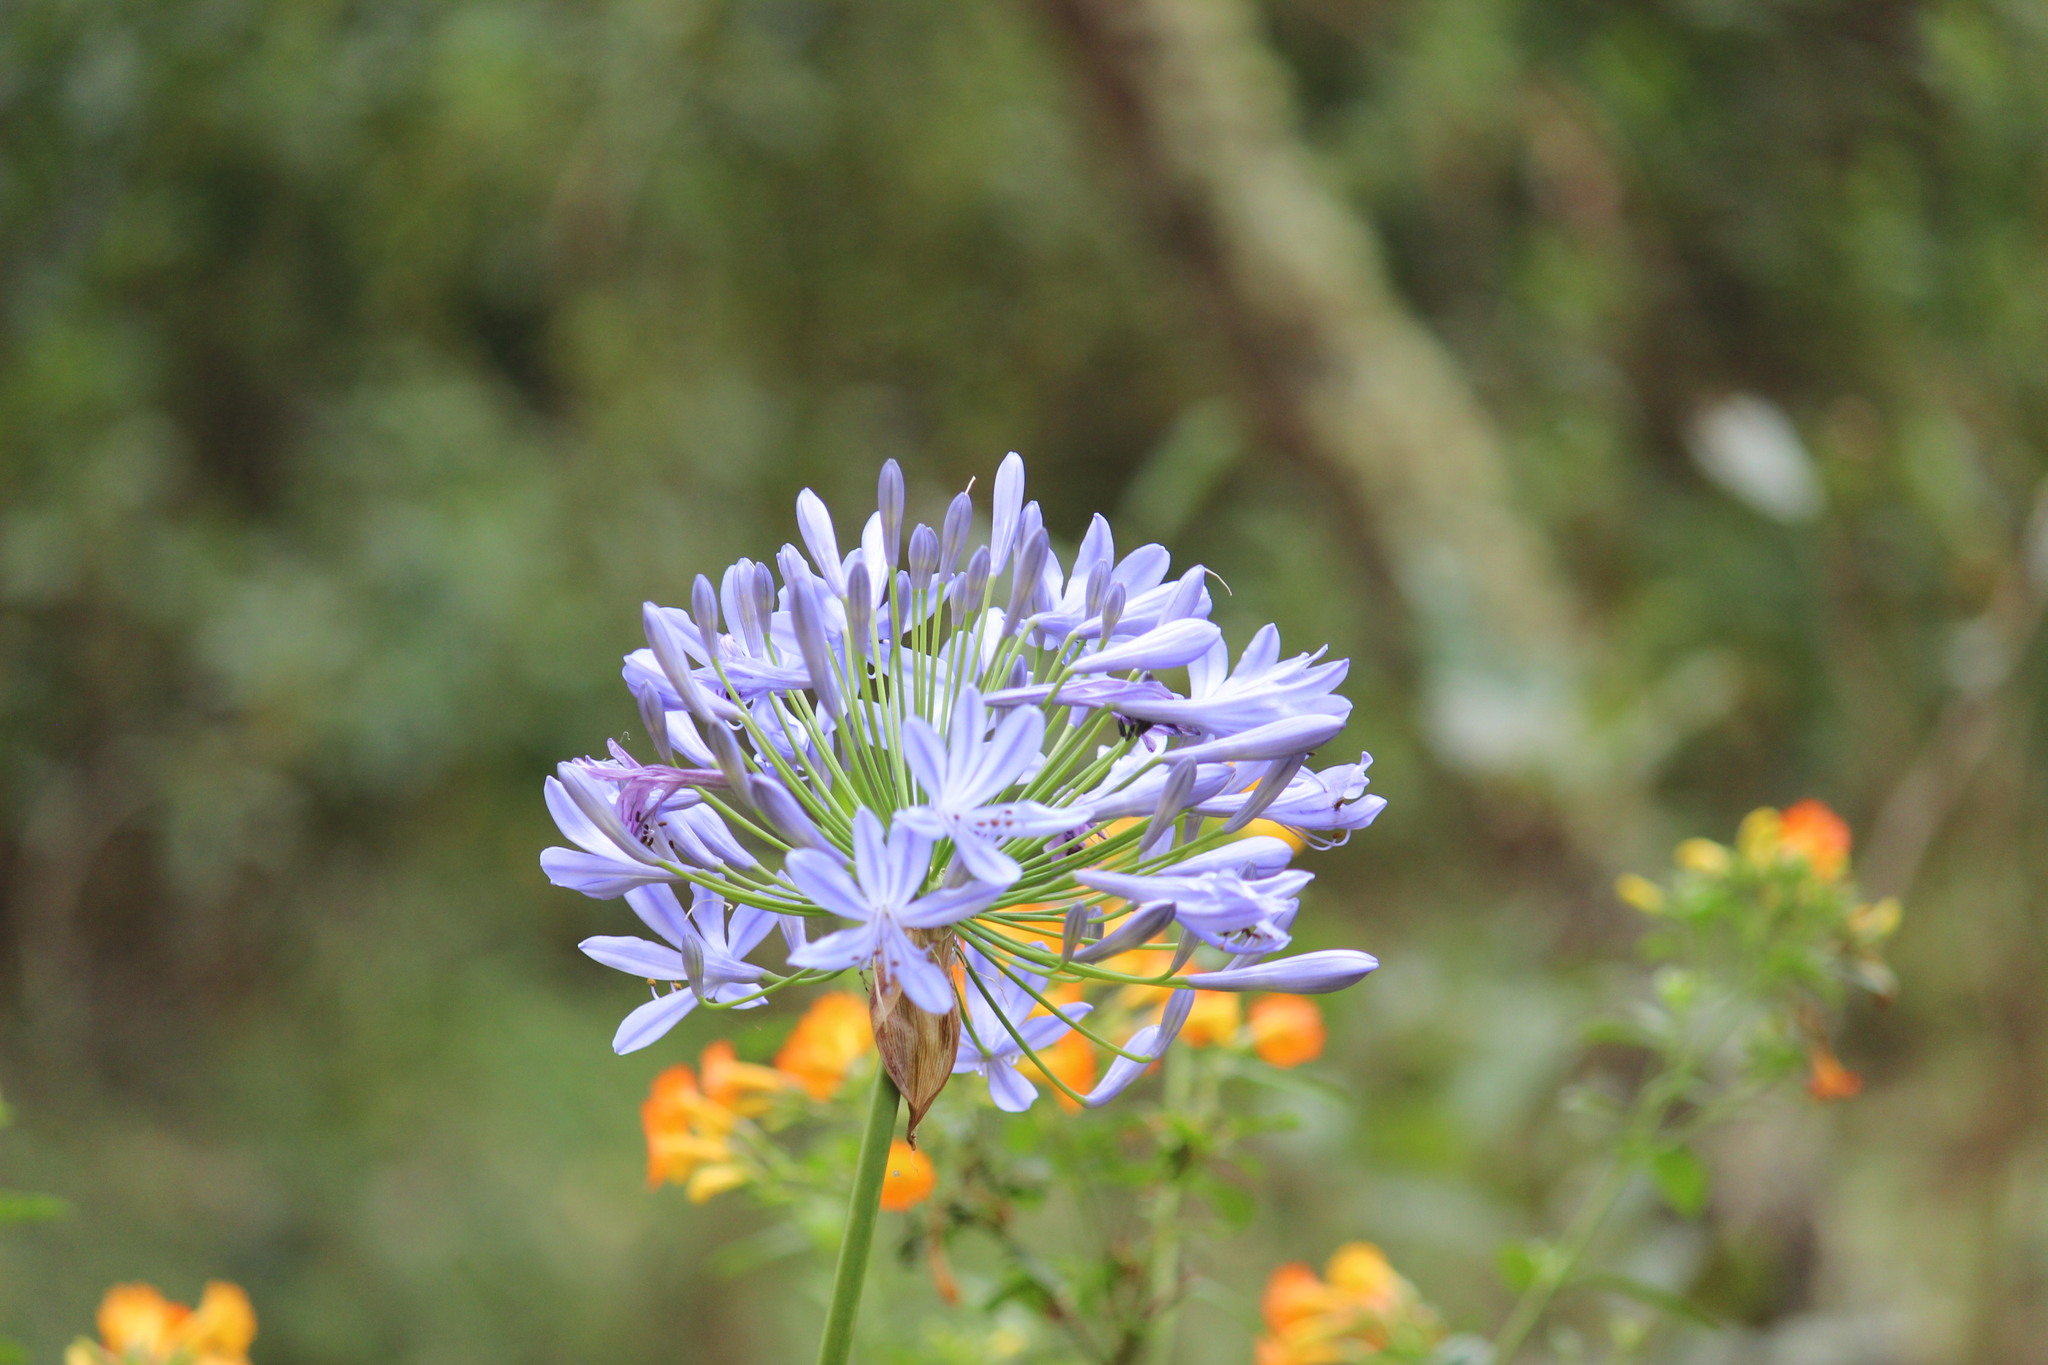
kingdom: Plantae
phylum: Tracheophyta
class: Liliopsida
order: Asparagales
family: Amaryllidaceae
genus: Agapanthus
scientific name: Agapanthus praecox
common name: African-lily
